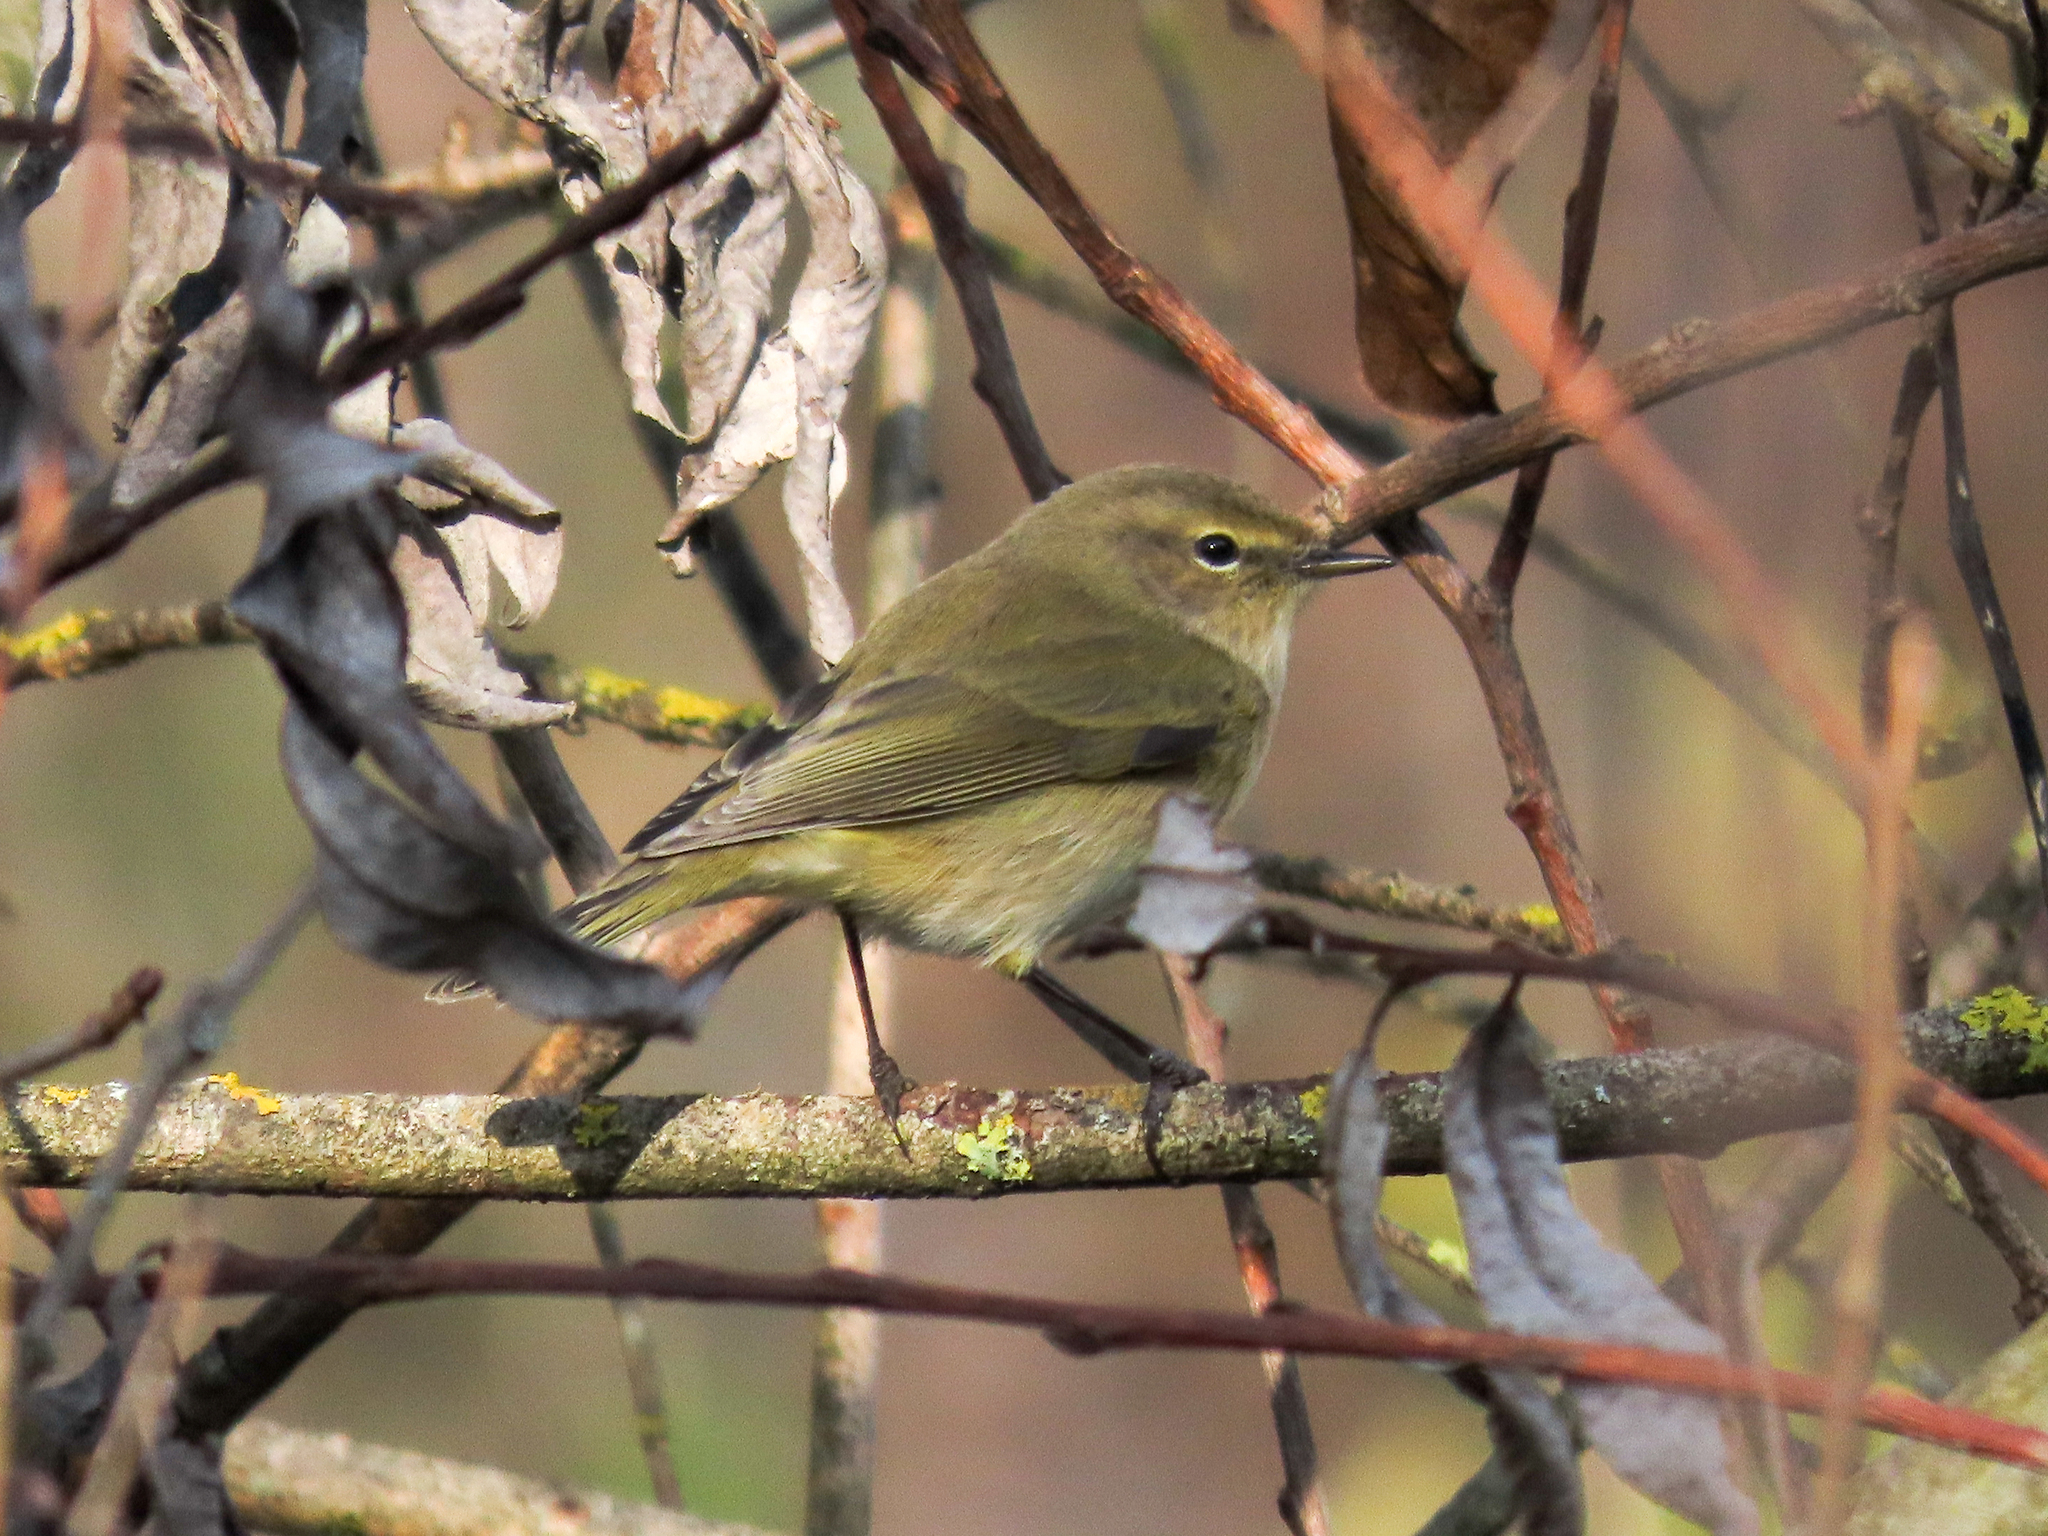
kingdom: Animalia
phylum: Chordata
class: Aves
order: Passeriformes
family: Phylloscopidae
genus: Phylloscopus
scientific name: Phylloscopus collybita
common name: Common chiffchaff
